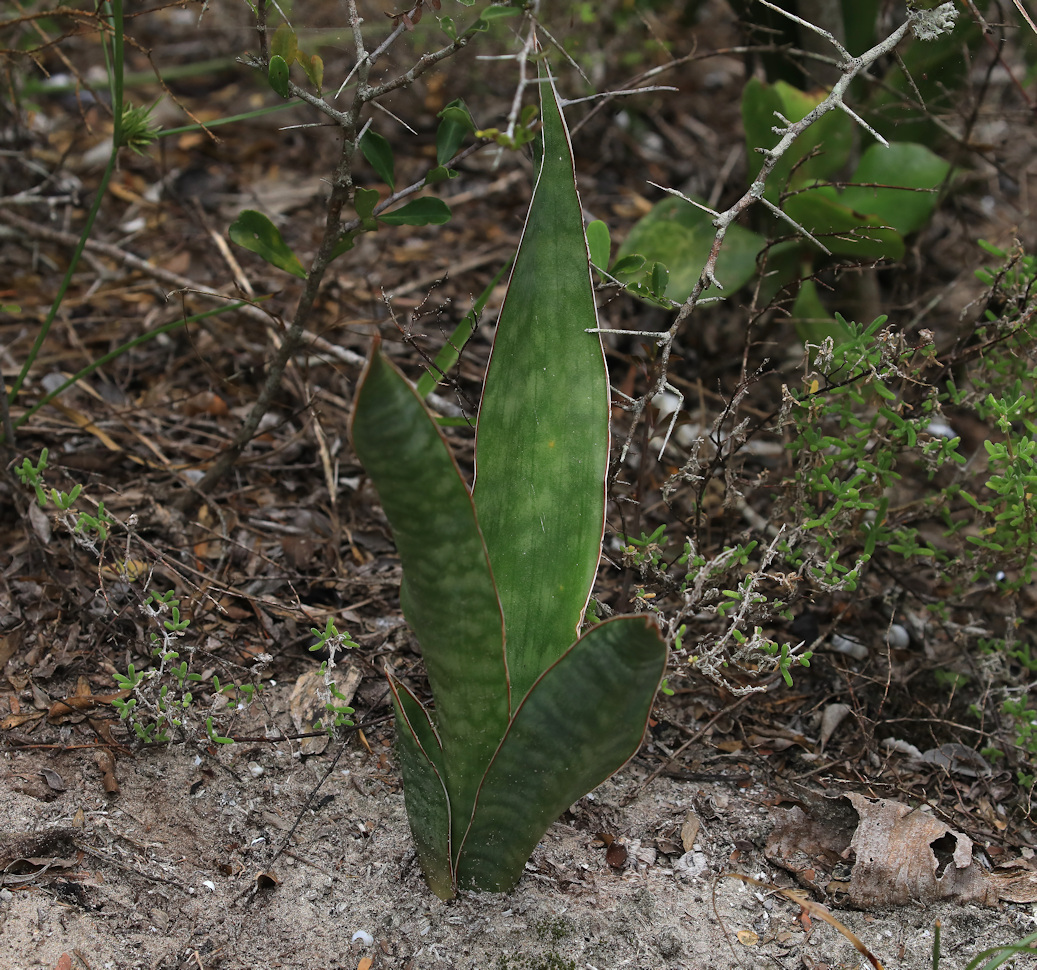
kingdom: Plantae
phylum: Tracheophyta
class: Liliopsida
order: Asparagales
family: Asparagaceae
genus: Dracaena
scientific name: Dracaena hyacinthoides
